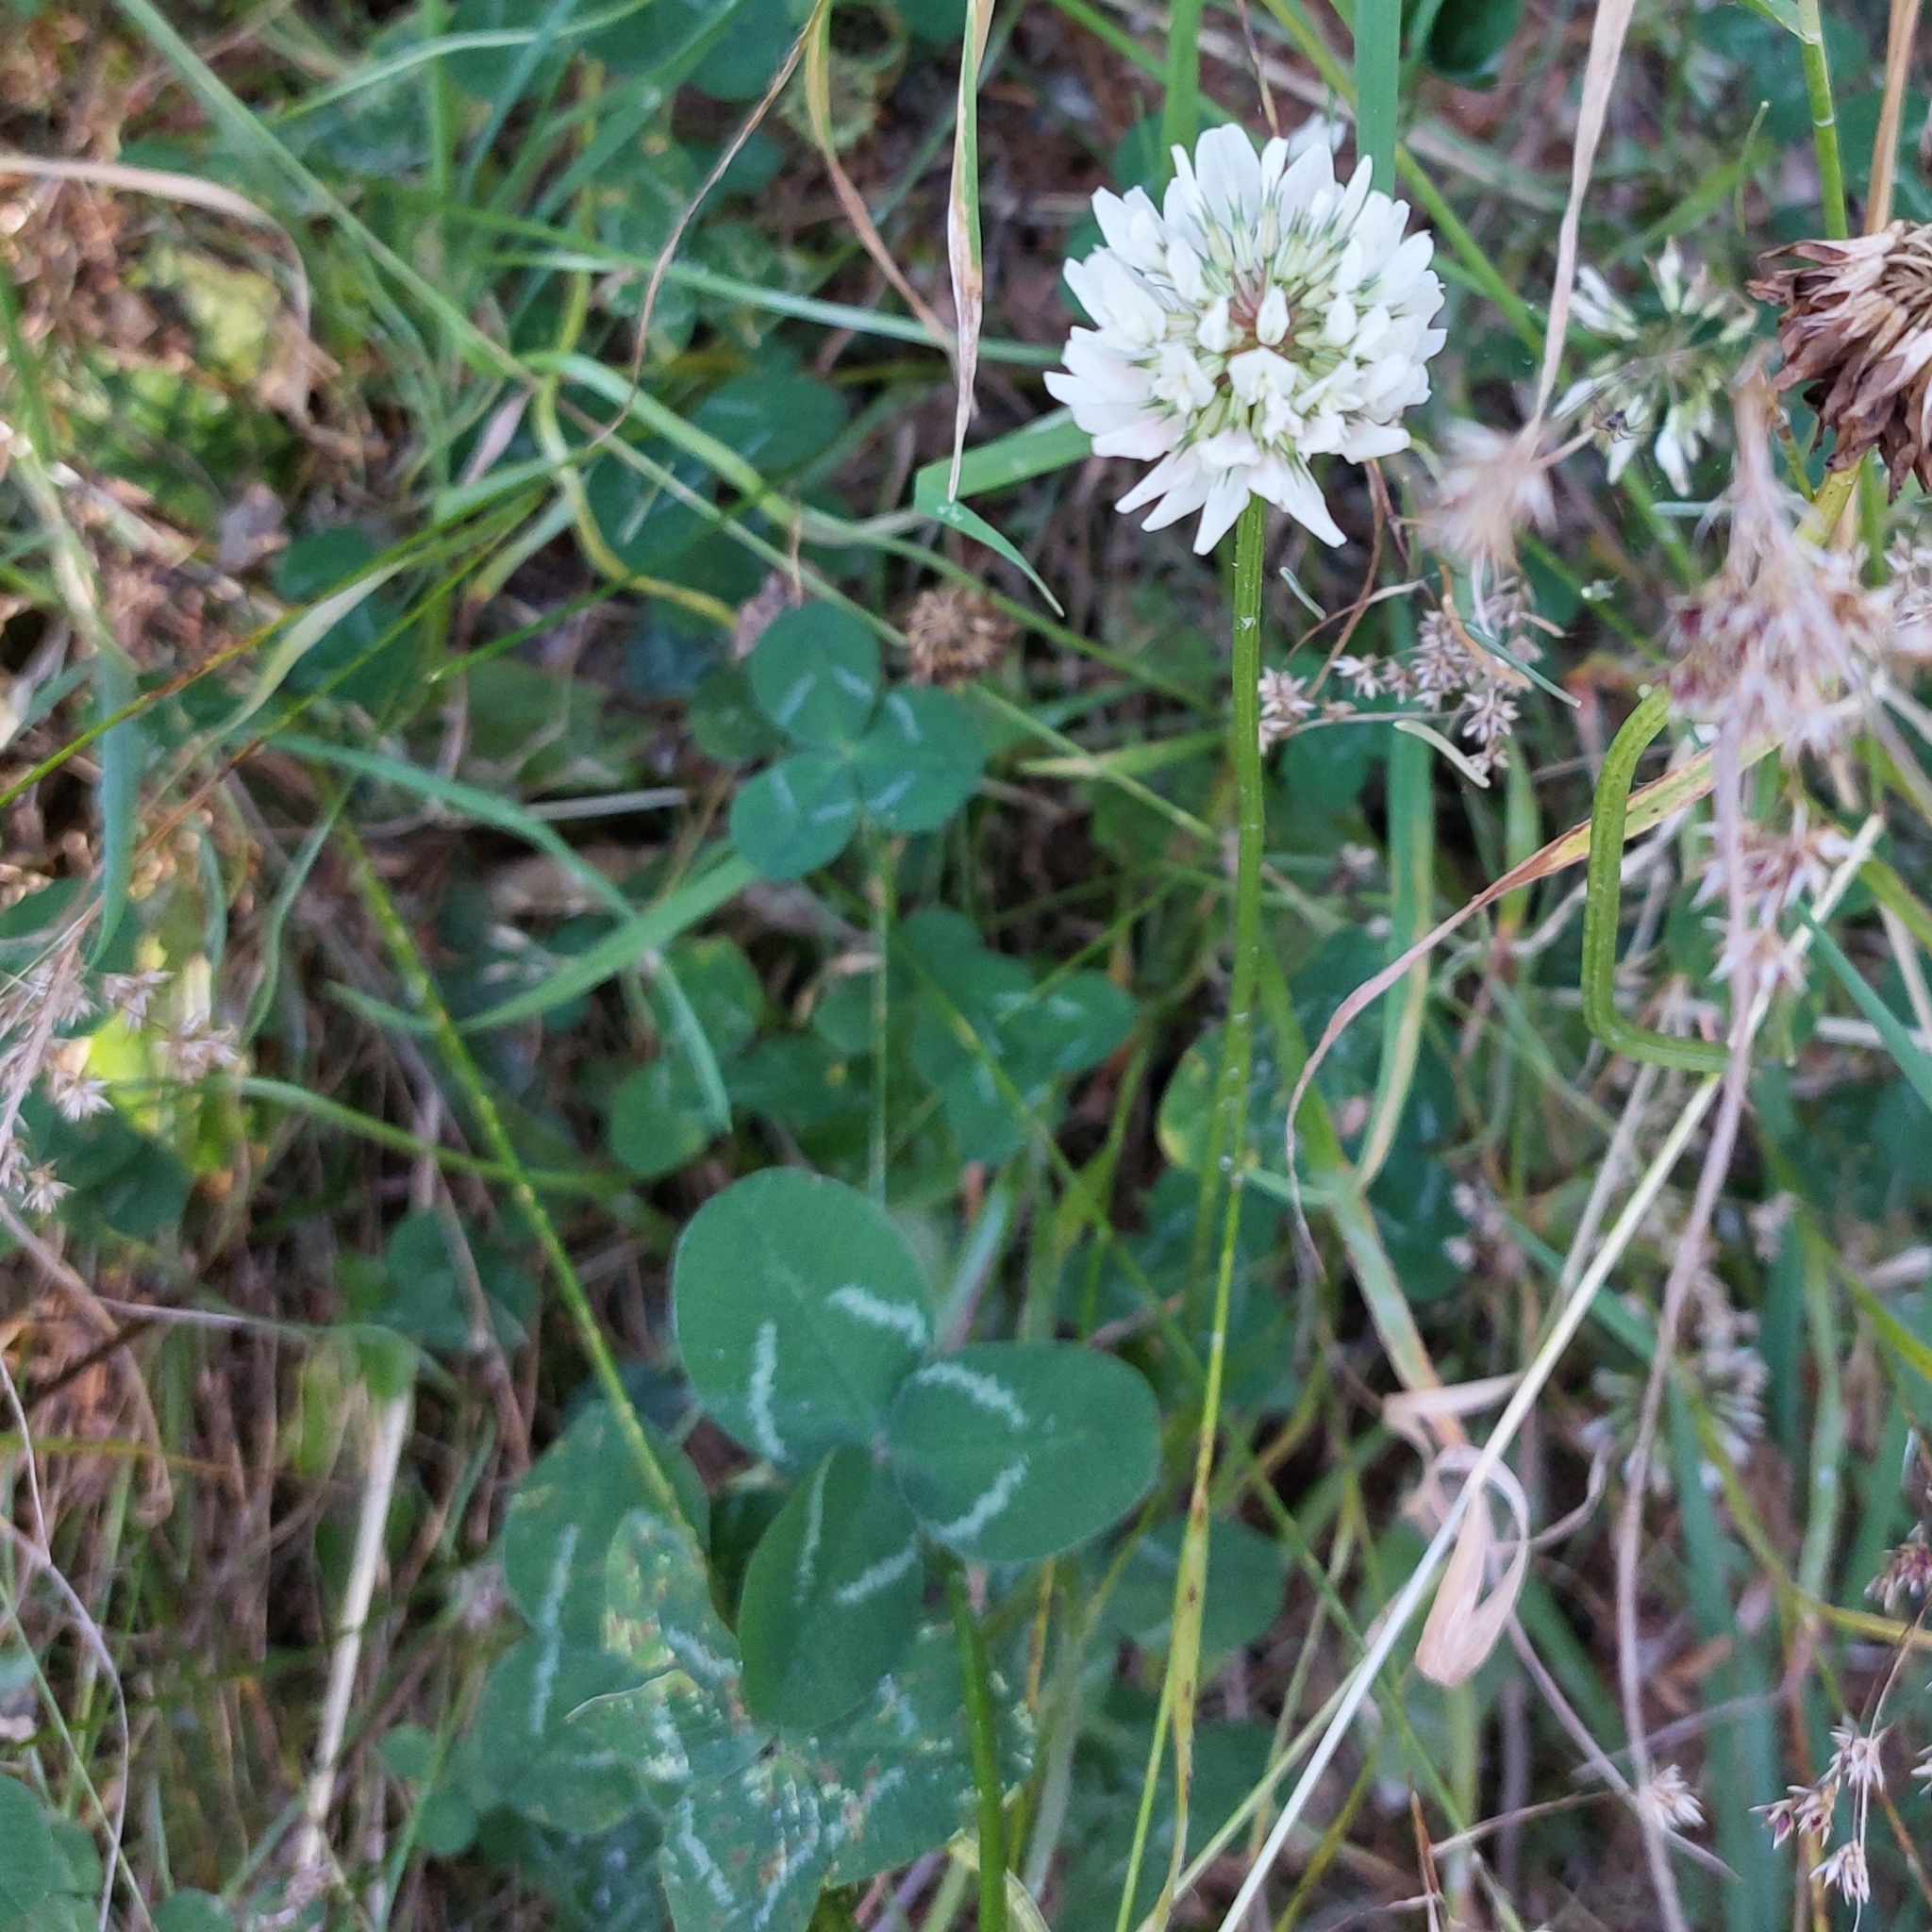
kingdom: Plantae
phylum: Tracheophyta
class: Magnoliopsida
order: Fabales
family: Fabaceae
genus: Trifolium
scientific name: Trifolium repens
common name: White clover
